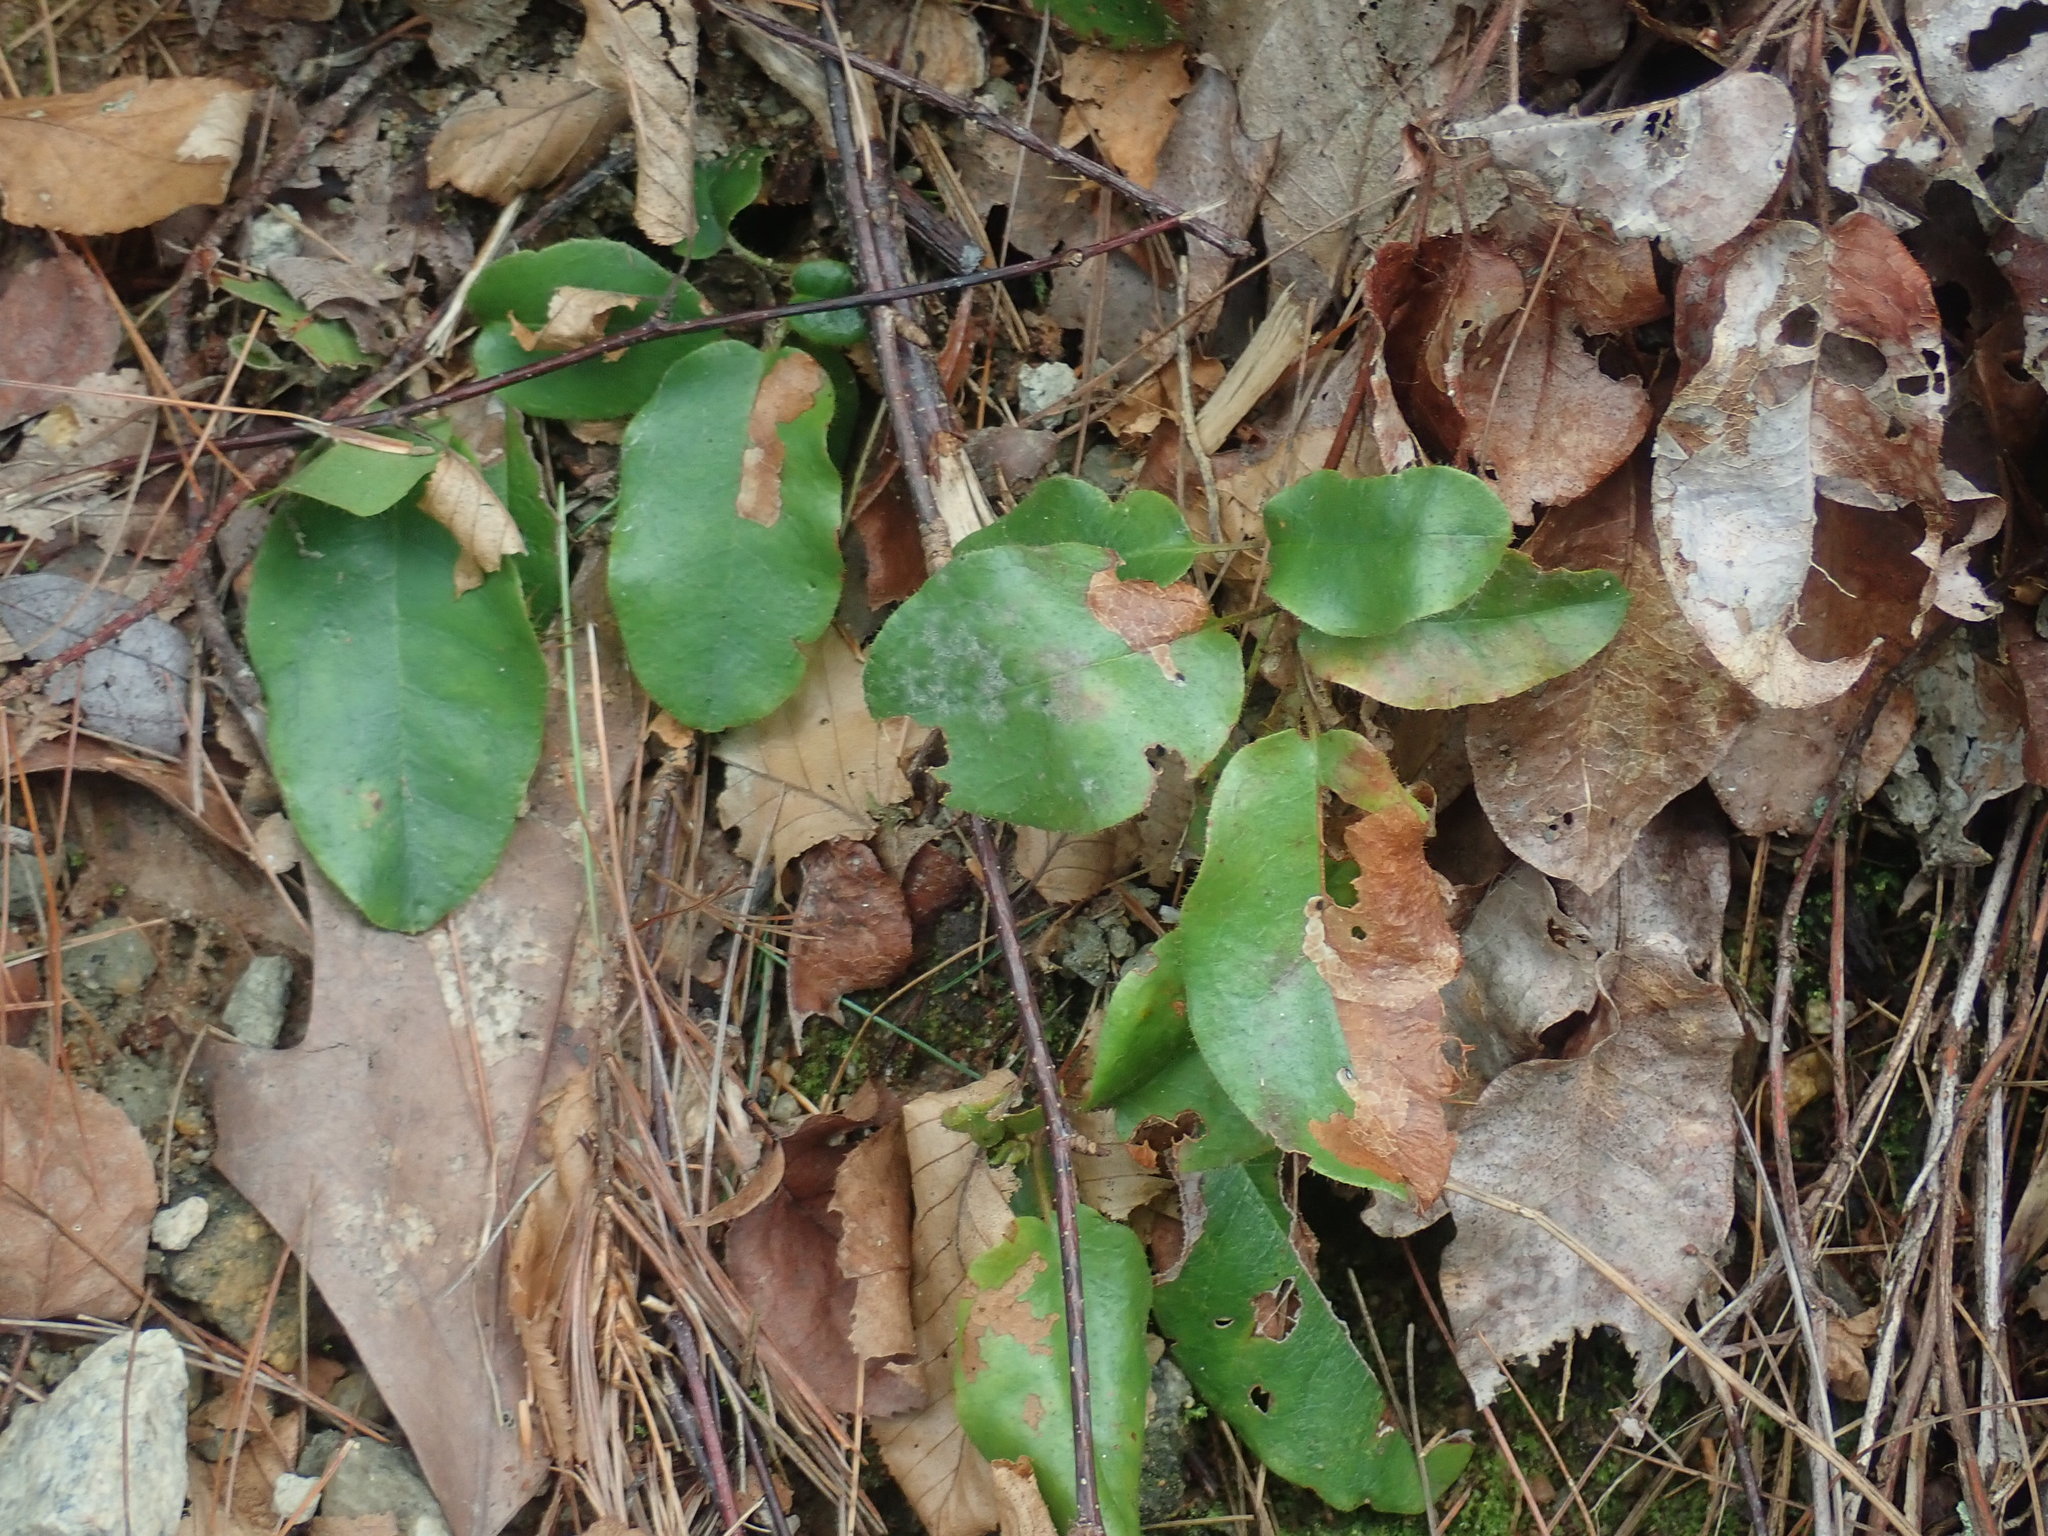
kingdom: Plantae
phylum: Tracheophyta
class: Magnoliopsida
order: Ericales
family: Ericaceae
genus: Epigaea
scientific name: Epigaea repens
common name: Gravelroot
